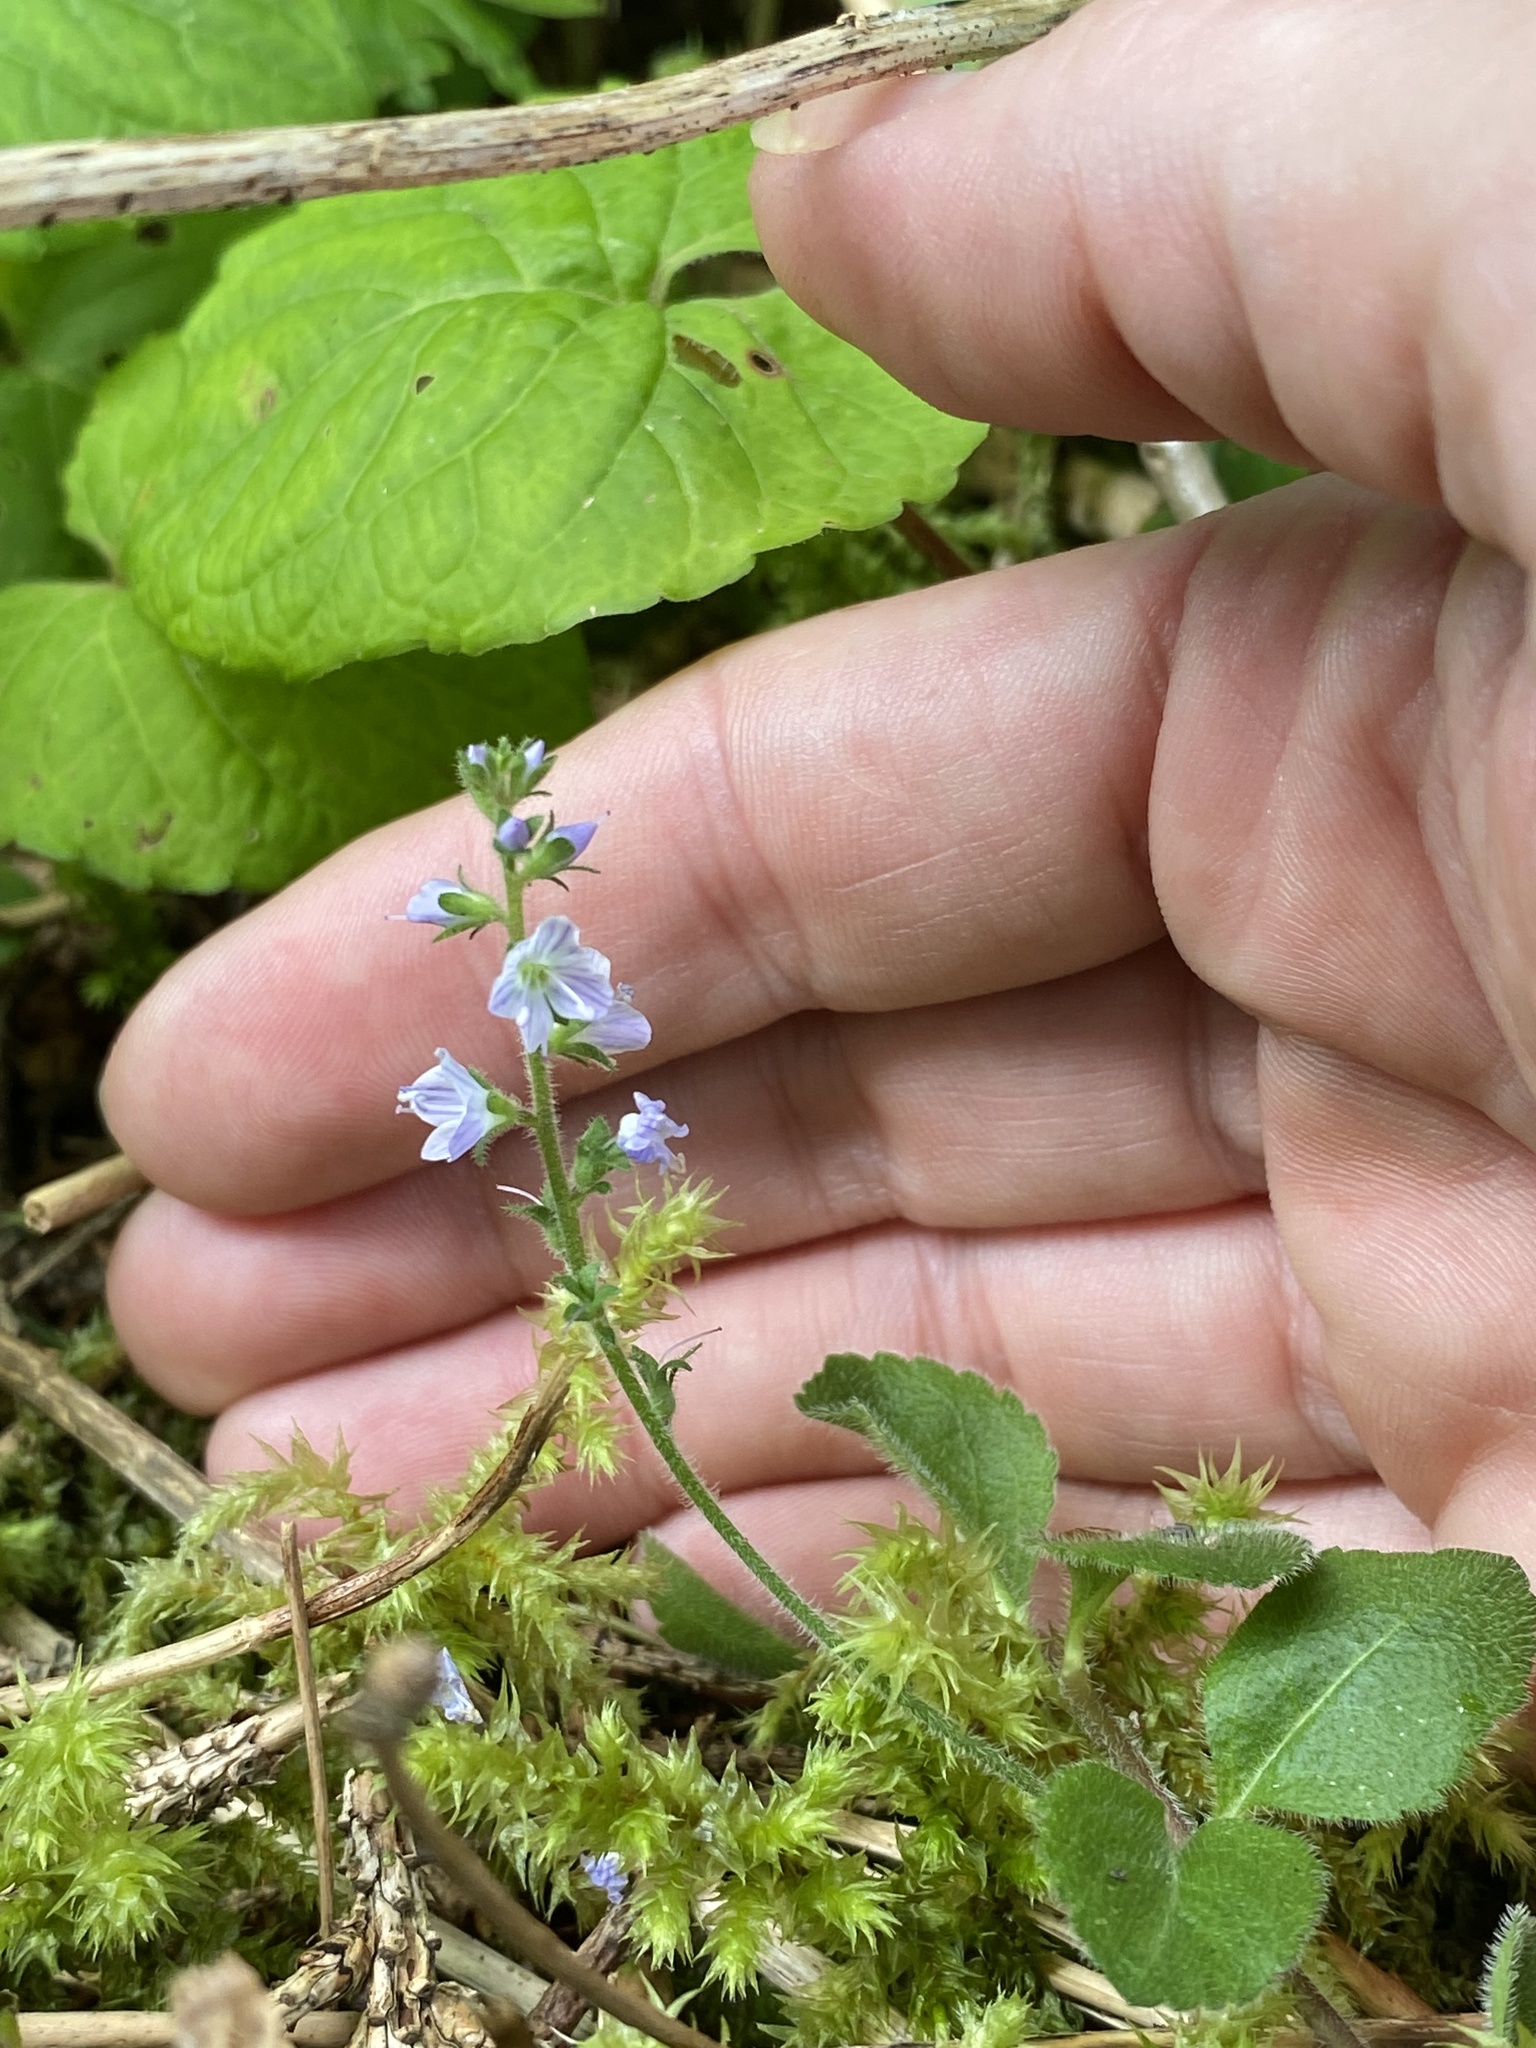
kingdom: Plantae
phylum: Tracheophyta
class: Magnoliopsida
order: Lamiales
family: Plantaginaceae
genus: Veronica
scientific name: Veronica officinalis
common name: Common speedwell
